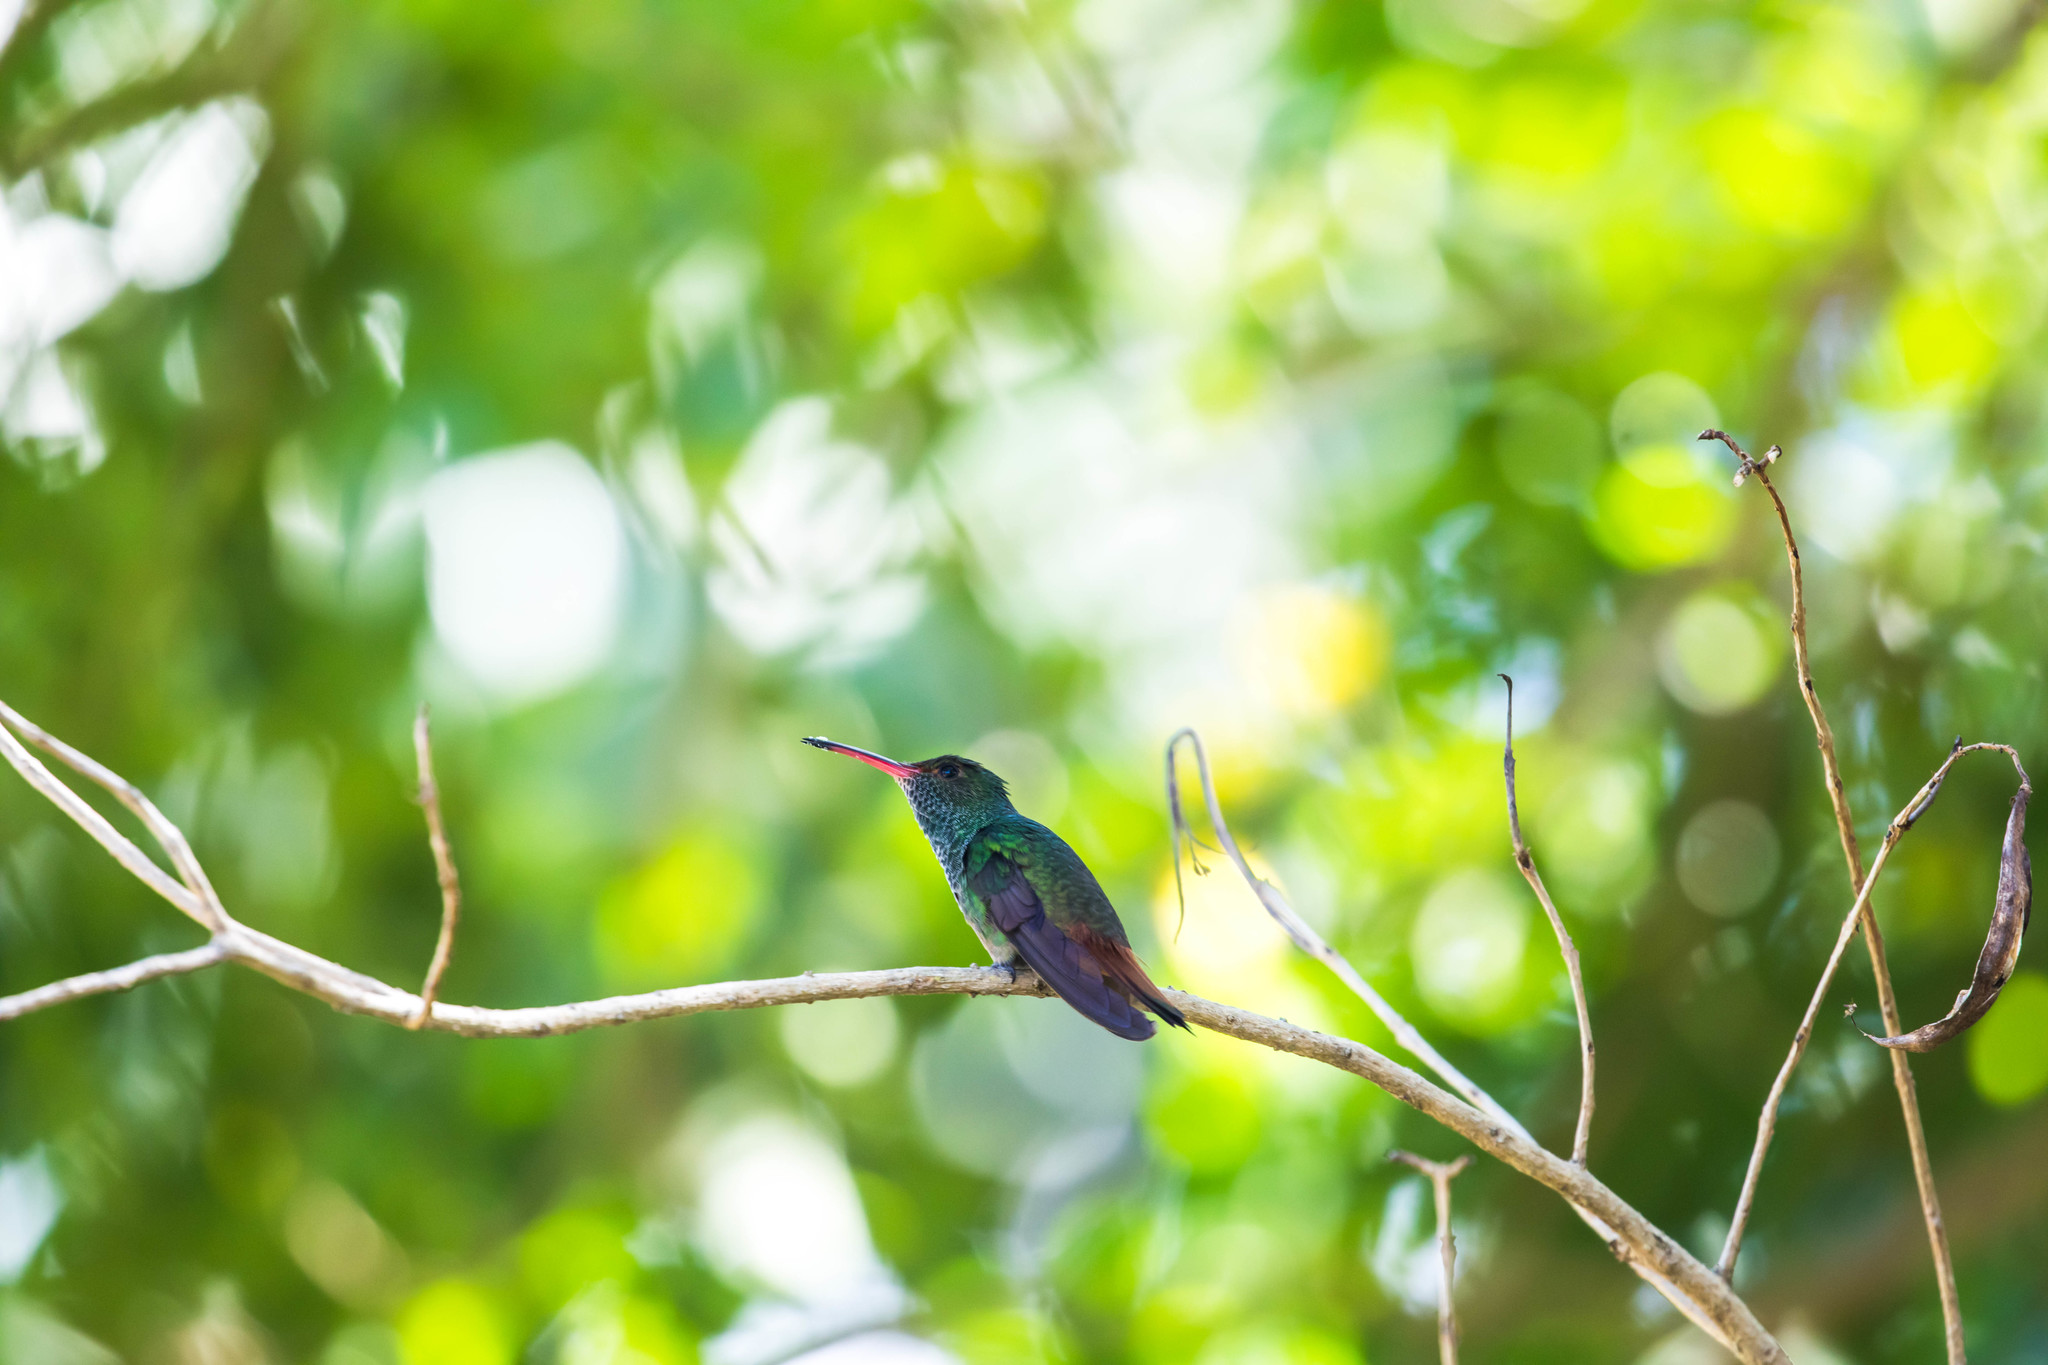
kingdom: Animalia
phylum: Chordata
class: Aves
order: Apodiformes
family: Trochilidae
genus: Amazilia
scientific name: Amazilia tzacatl
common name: Rufous-tailed hummingbird
